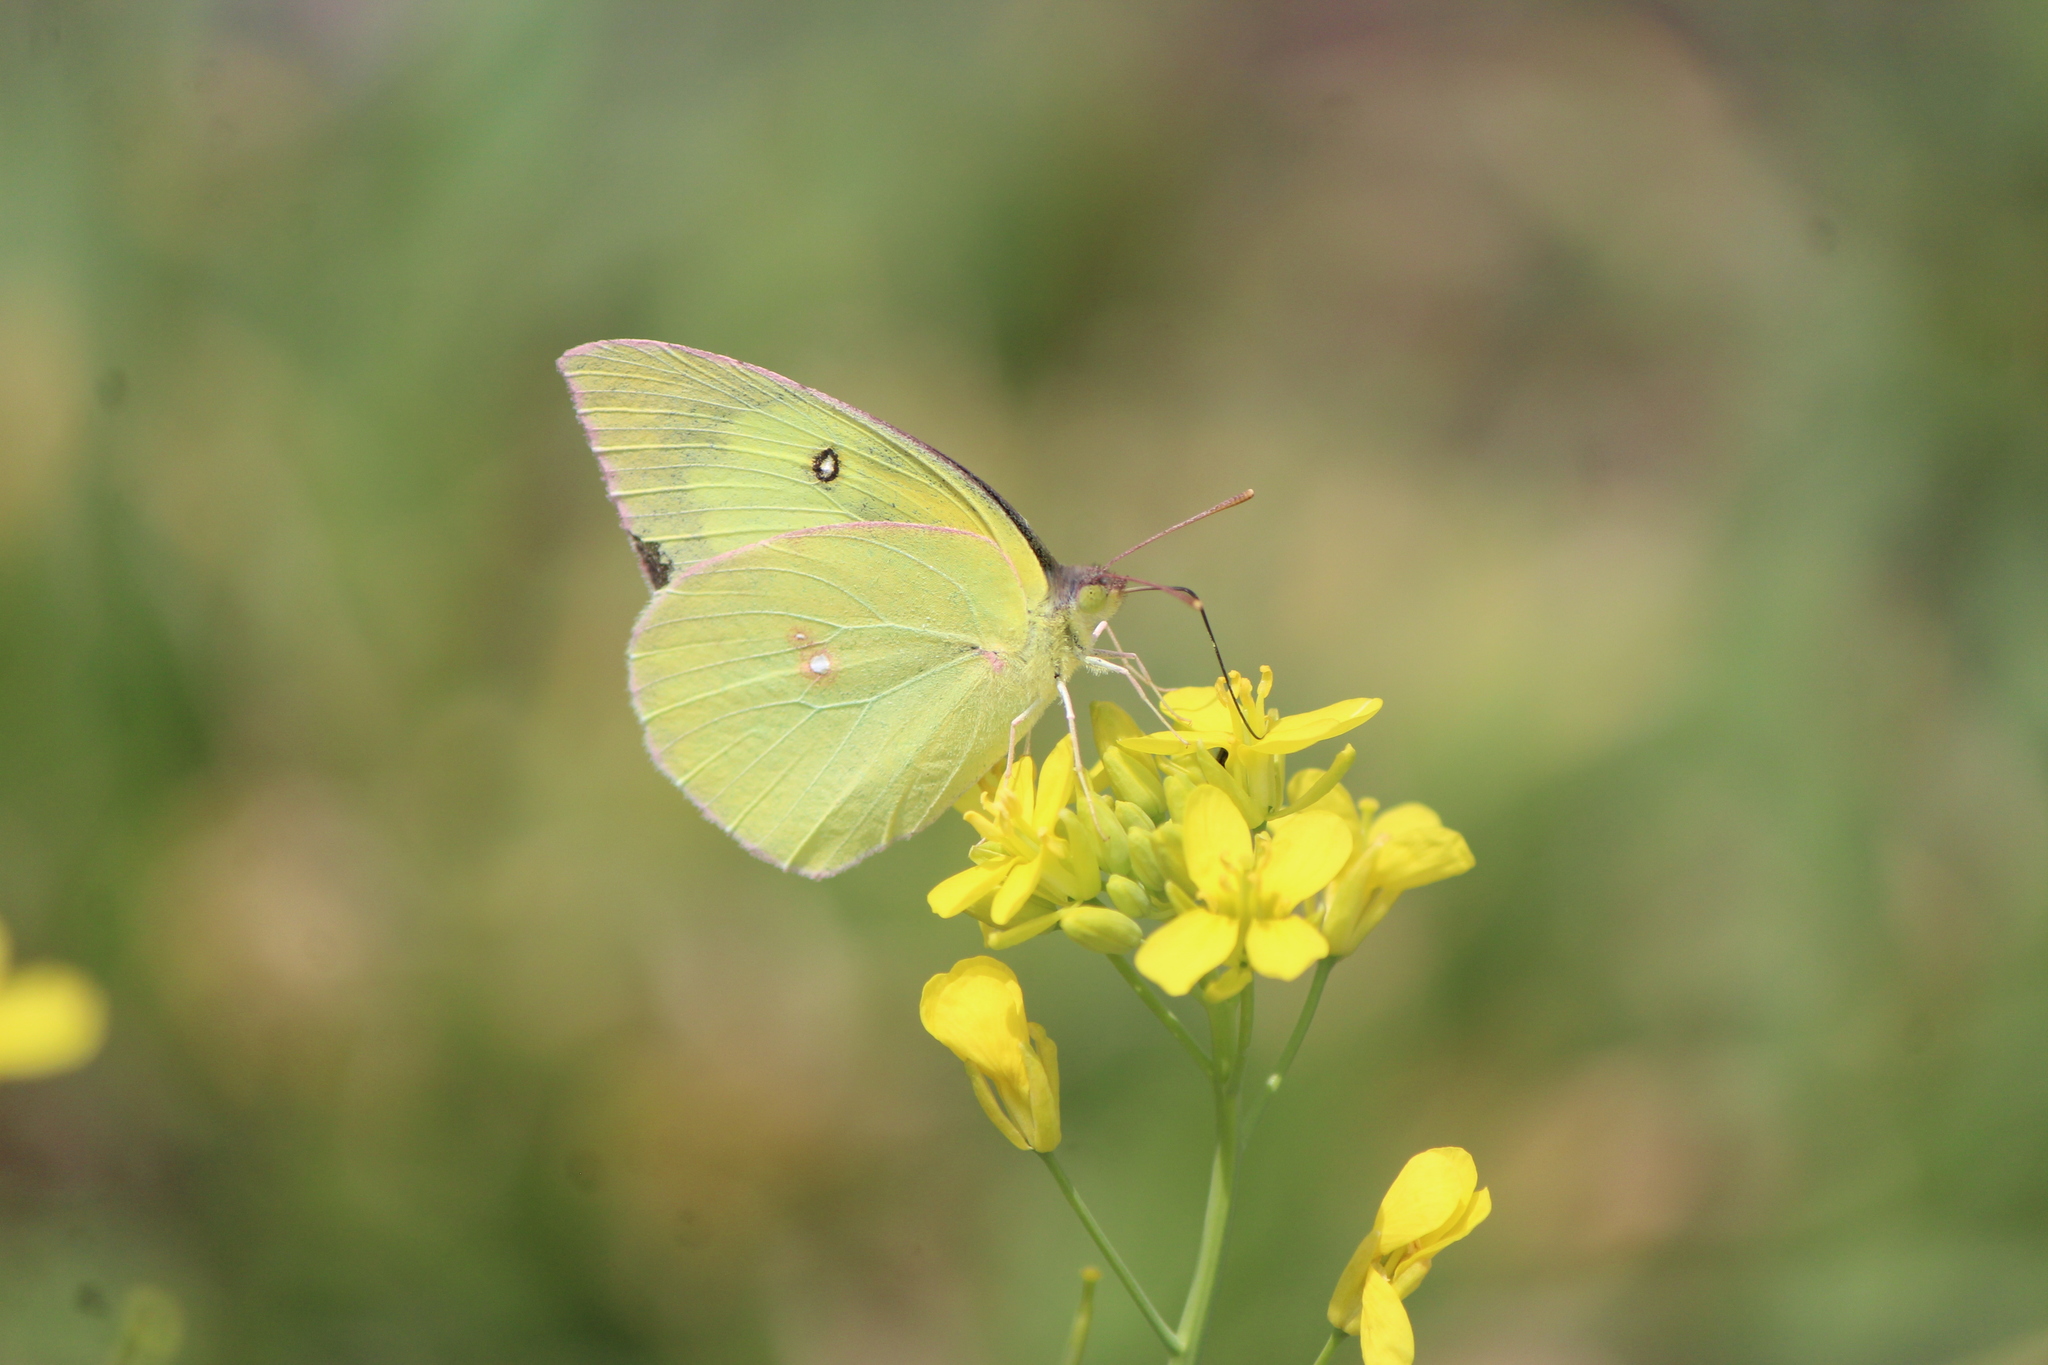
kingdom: Animalia
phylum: Arthropoda
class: Insecta
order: Lepidoptera
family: Pieridae
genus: Zerene
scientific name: Zerene cesonia
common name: Southern dogface
